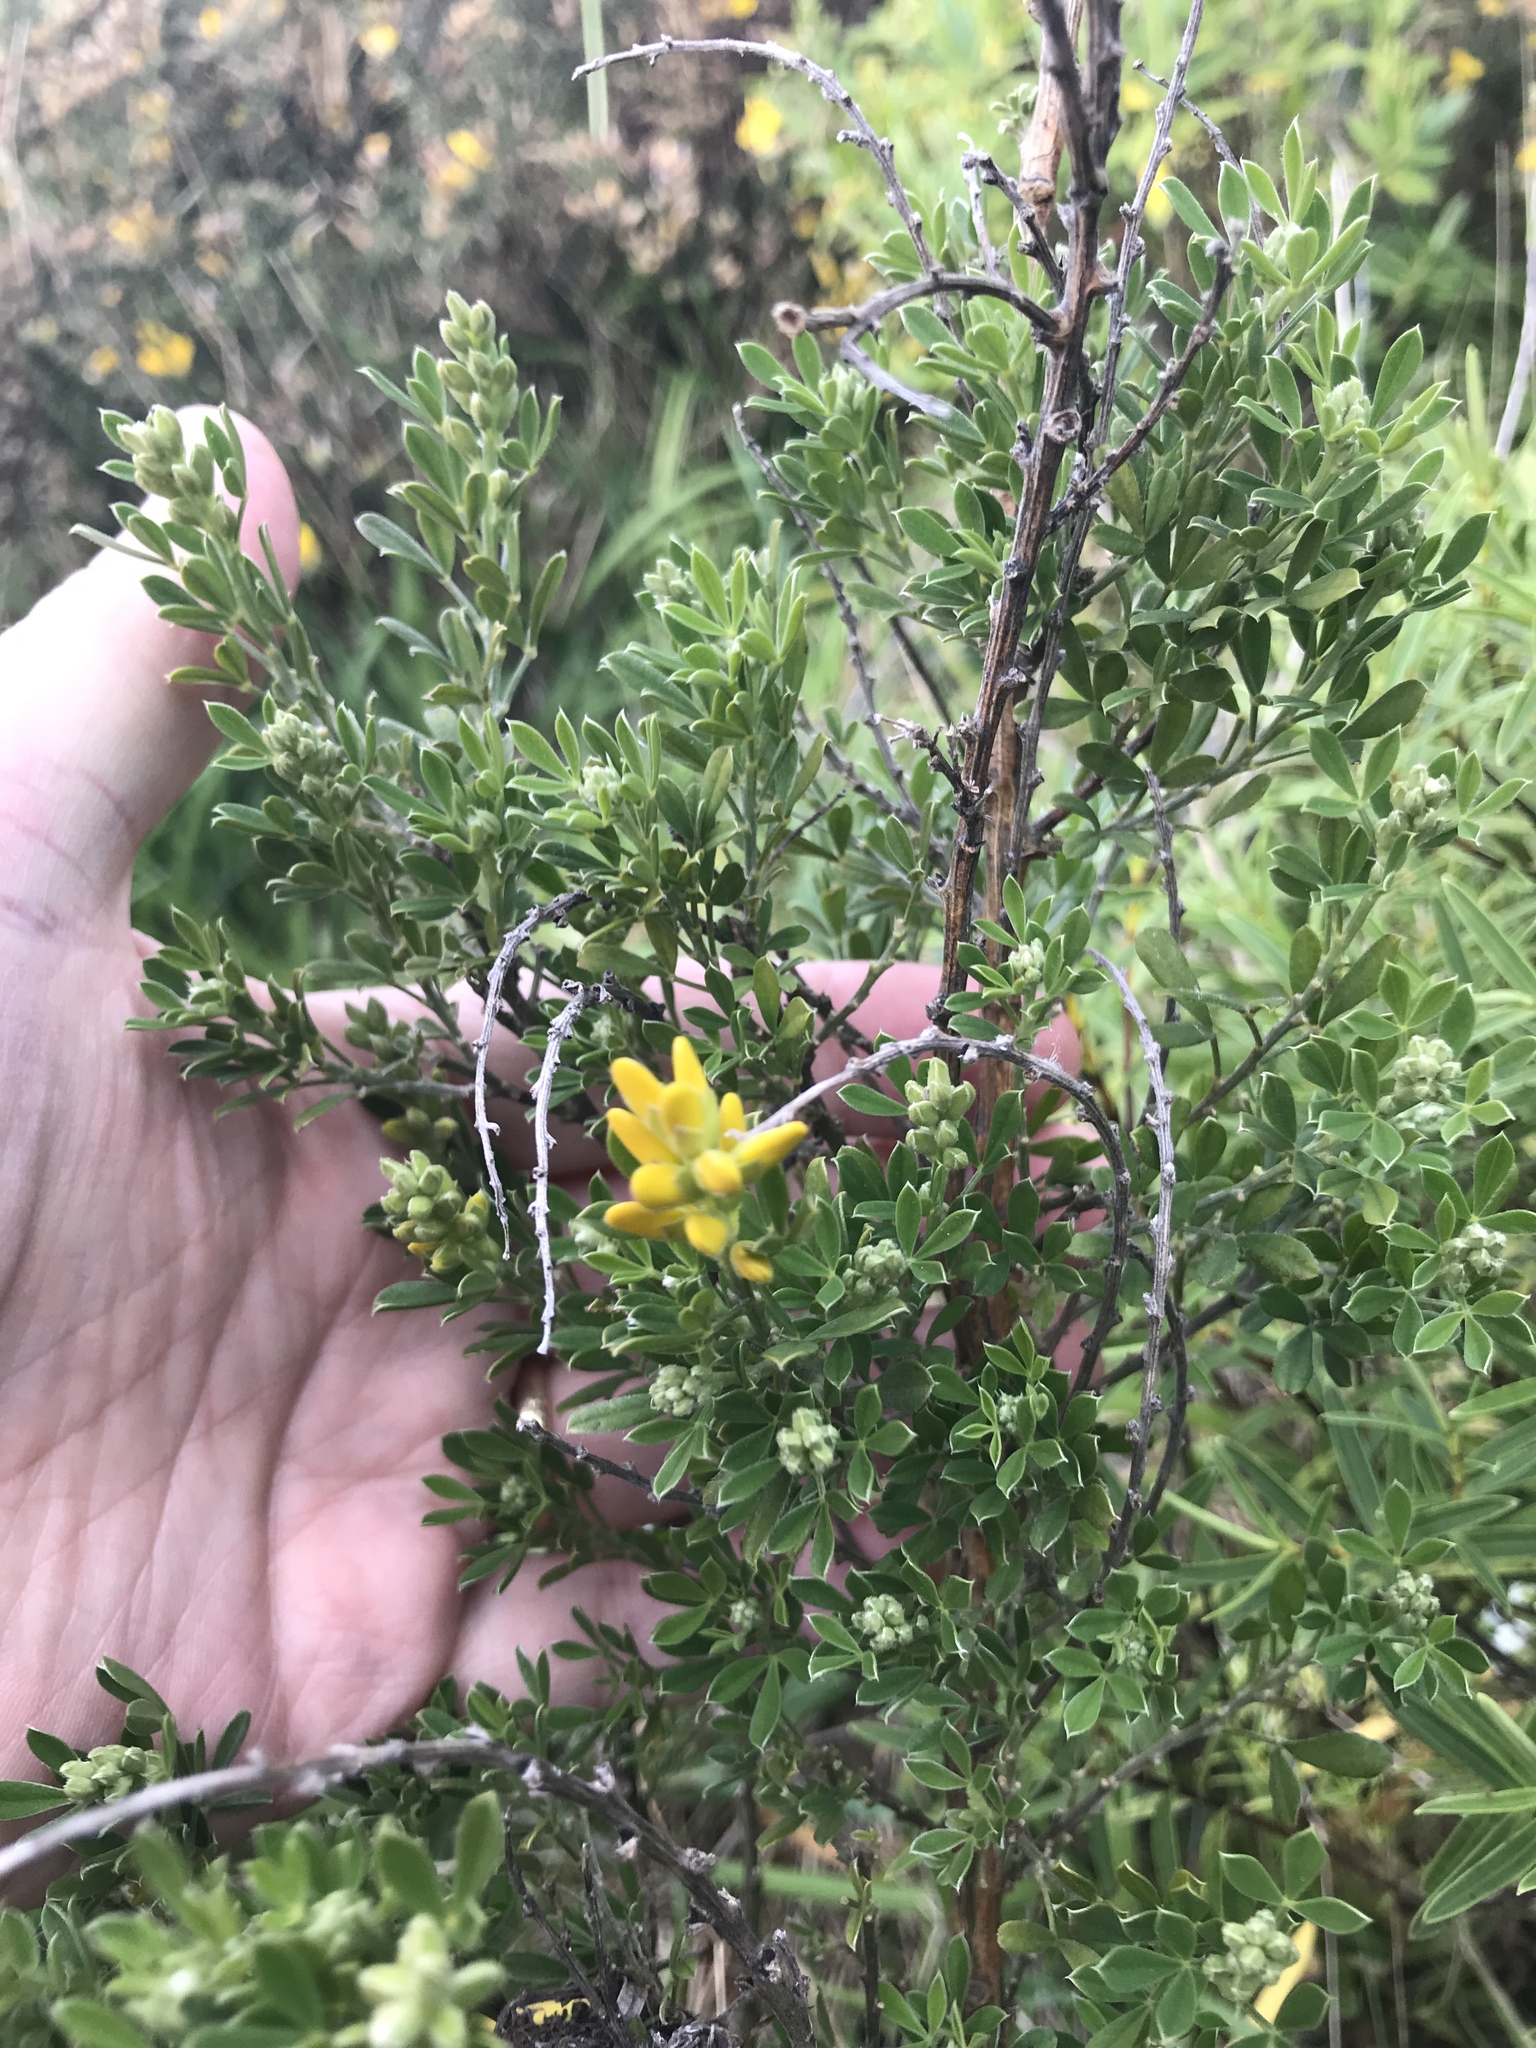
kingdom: Plantae
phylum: Tracheophyta
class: Magnoliopsida
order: Fabales
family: Fabaceae
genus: Genista
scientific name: Genista stenopetala
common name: Leafy broom
